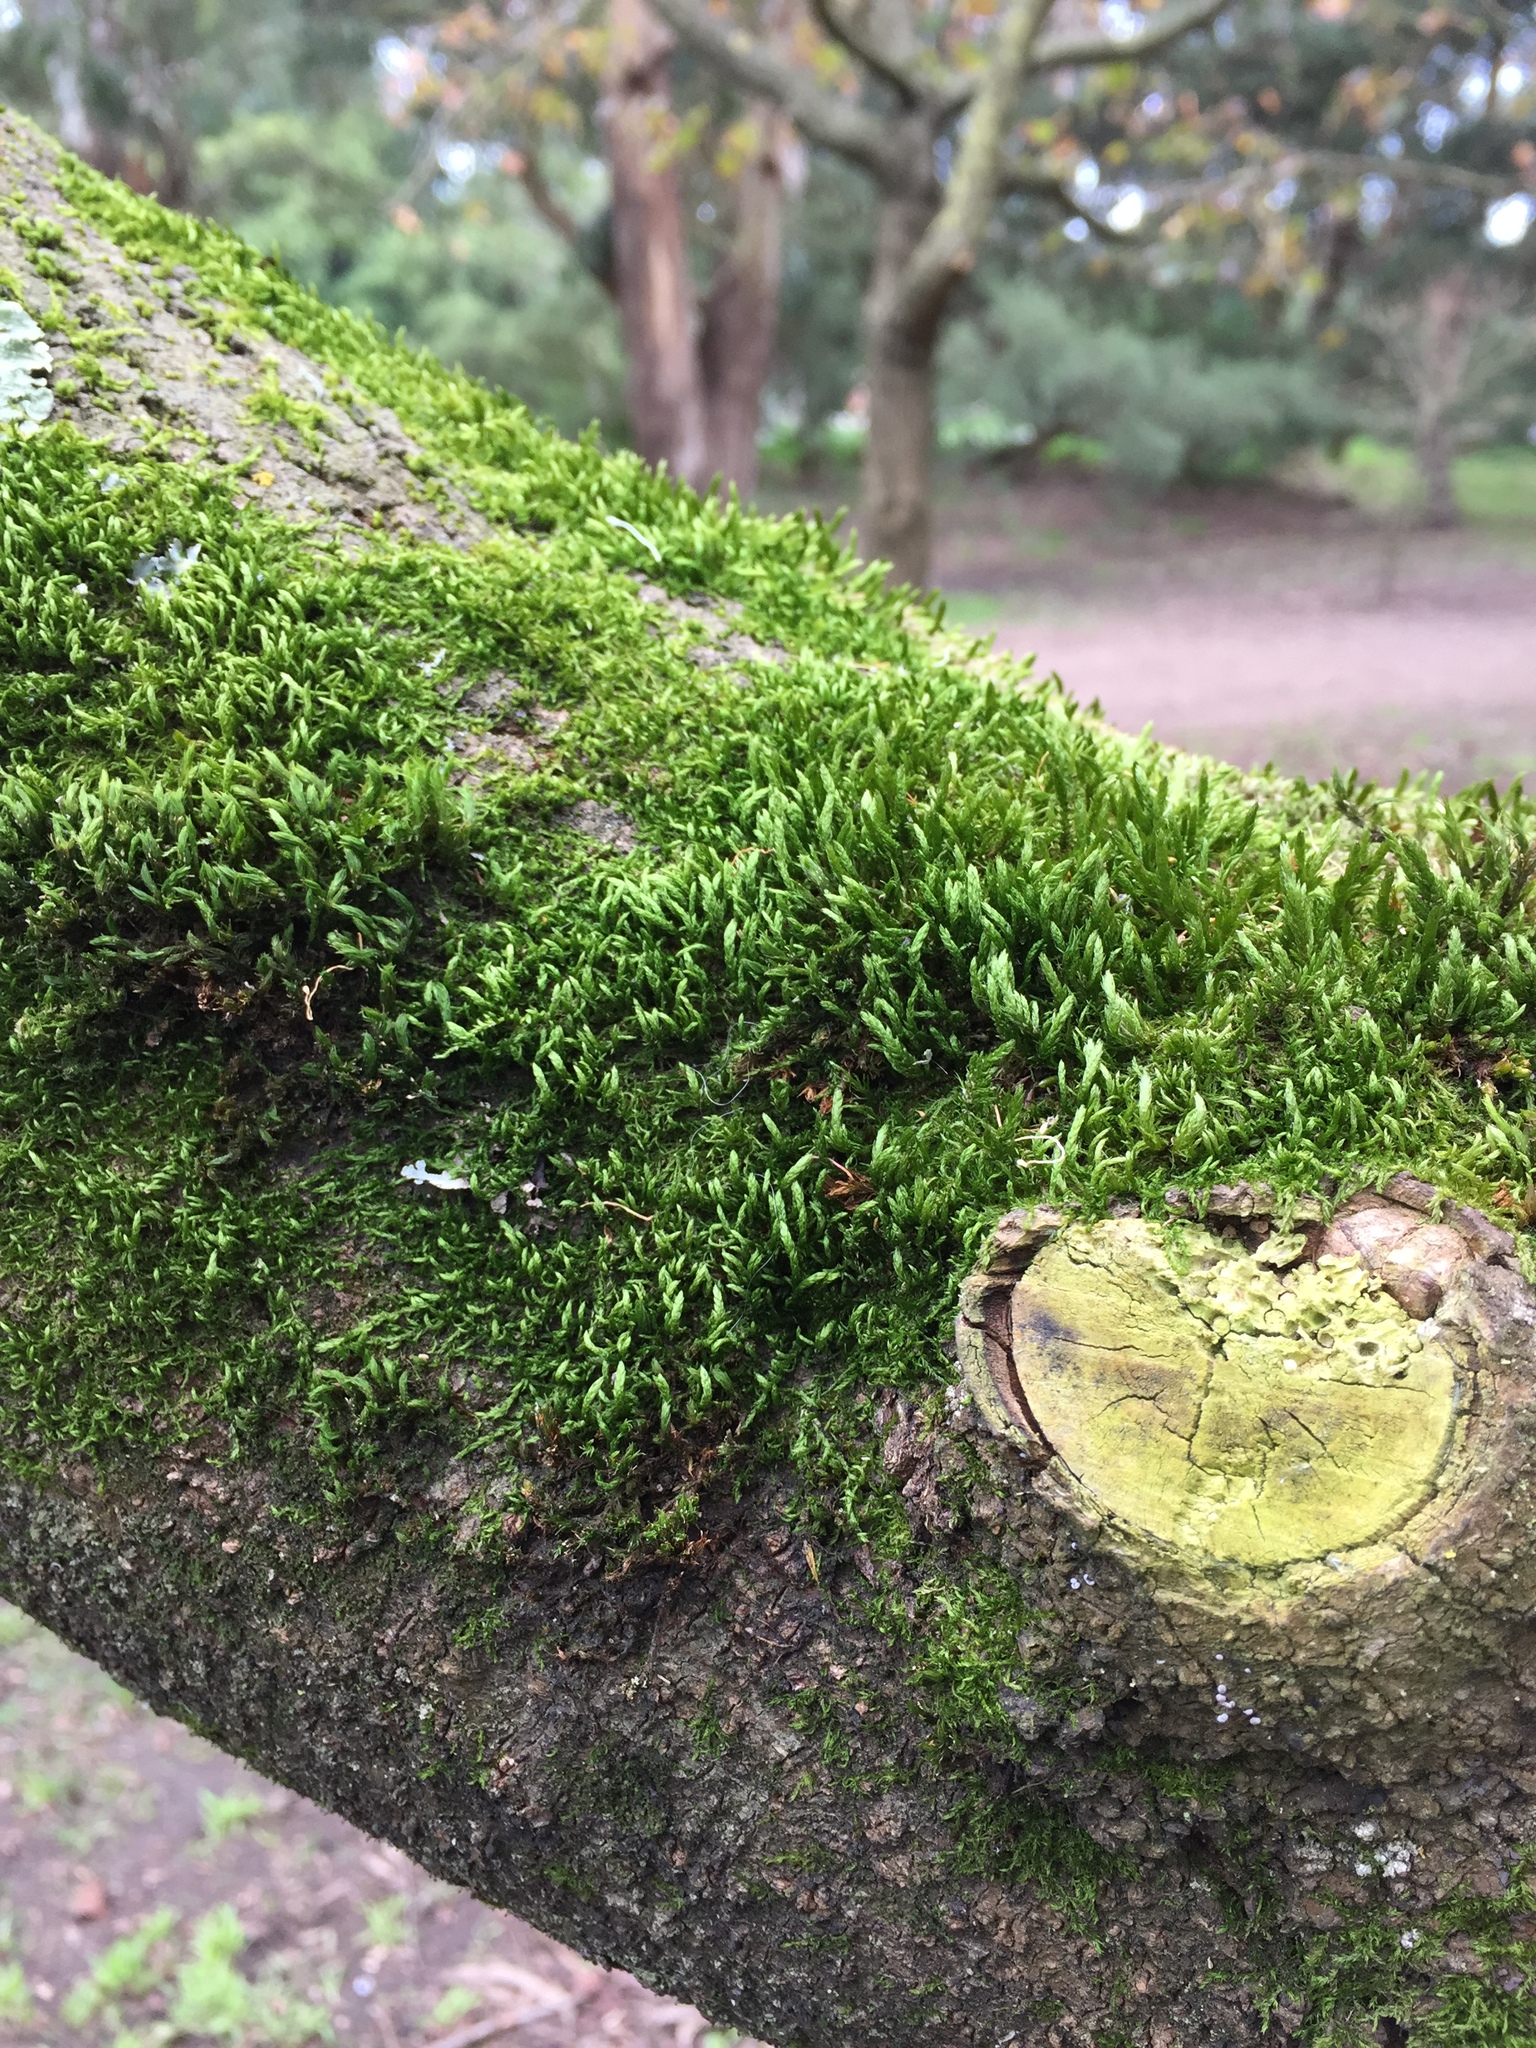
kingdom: Plantae
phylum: Bryophyta
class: Bryopsida
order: Hypnales
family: Neckeraceae
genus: Neckera
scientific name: Neckera californica
